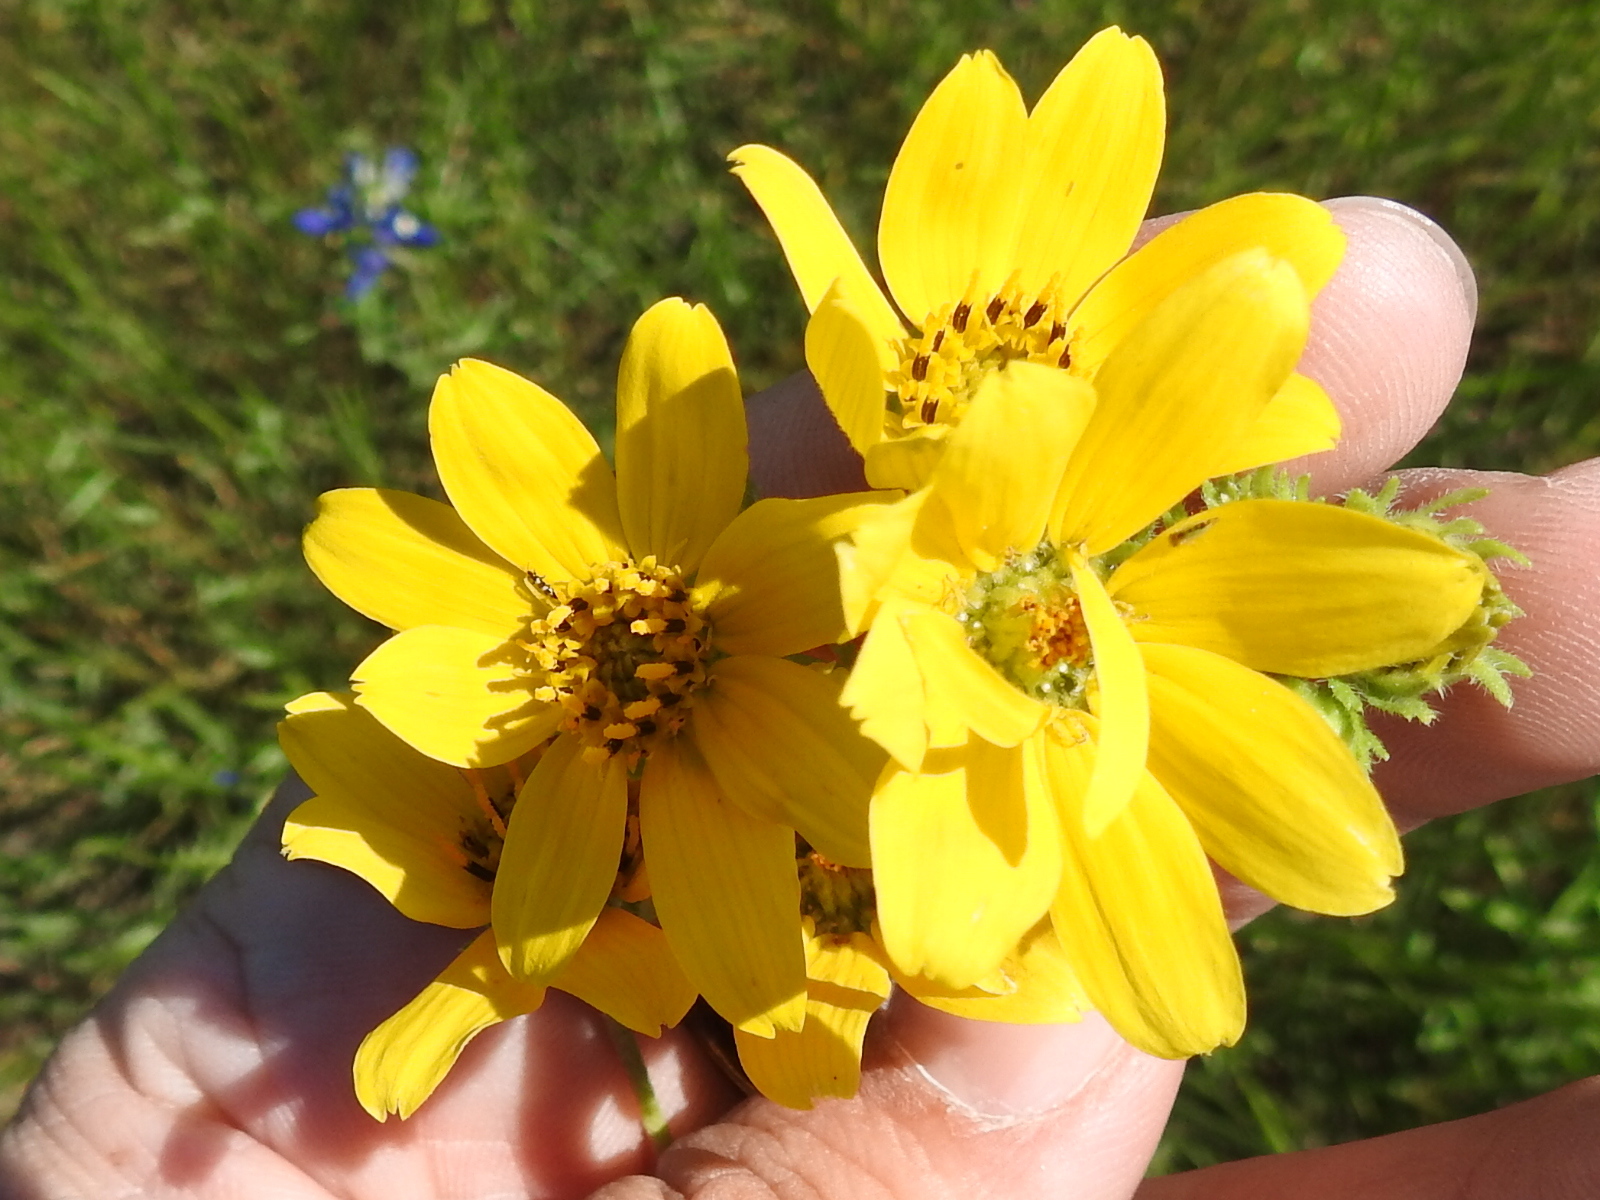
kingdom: Plantae
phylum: Tracheophyta
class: Magnoliopsida
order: Asterales
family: Asteraceae
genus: Engelmannia
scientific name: Engelmannia peristenia
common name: Engelmann's daisy
